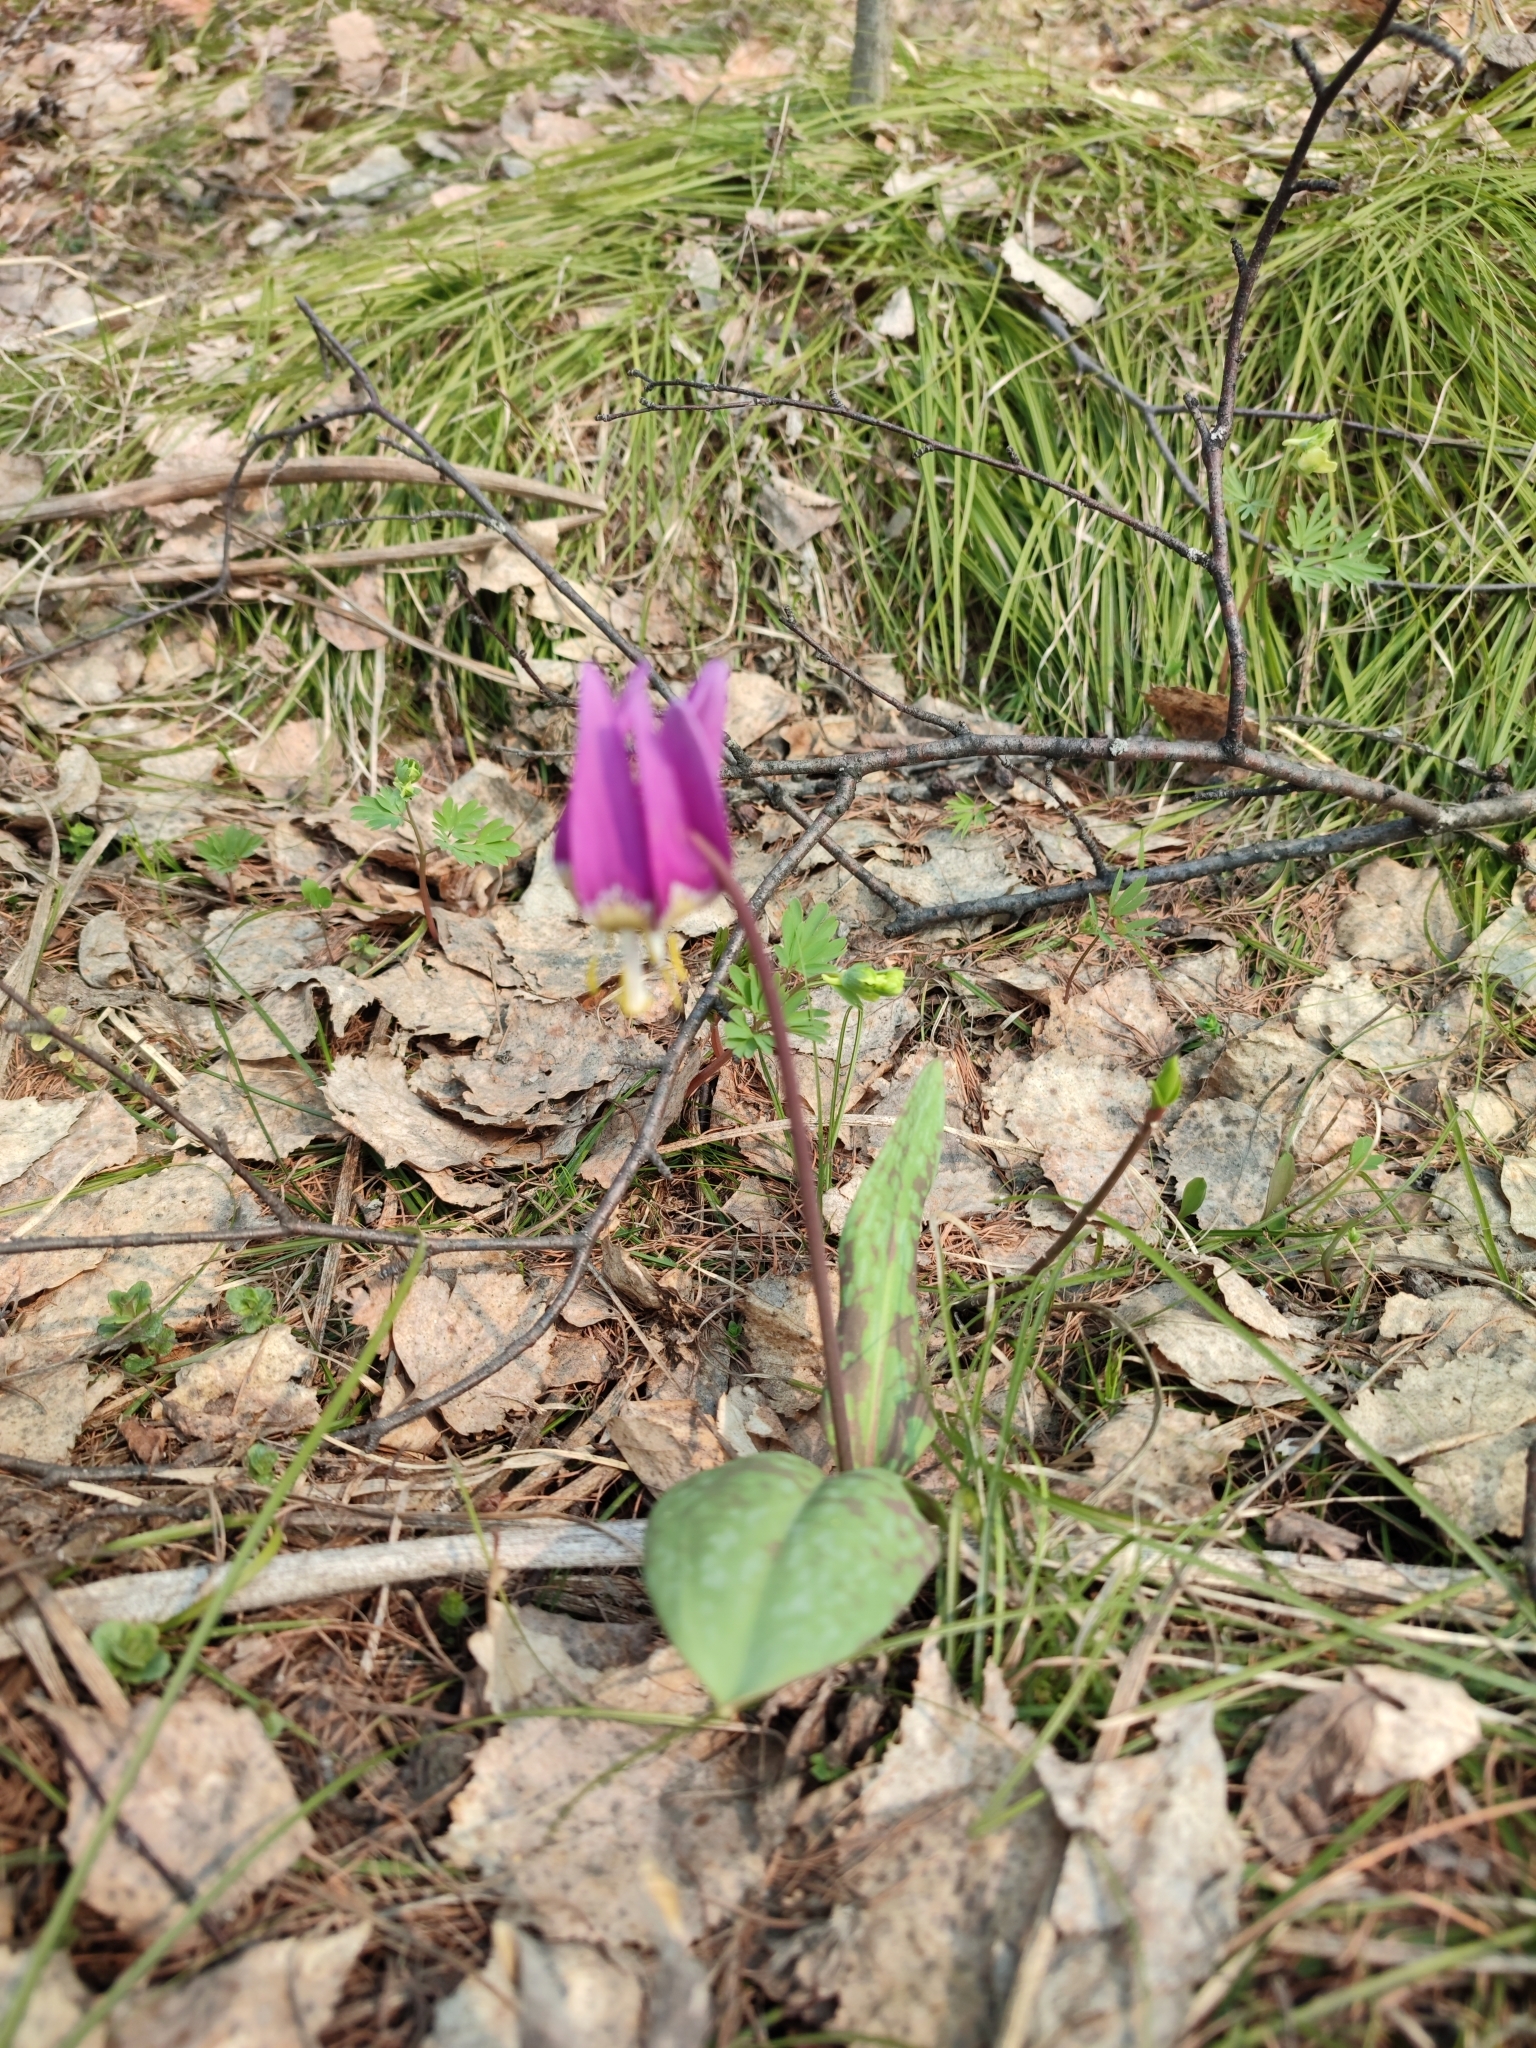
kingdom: Plantae
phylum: Tracheophyta
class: Liliopsida
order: Liliales
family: Liliaceae
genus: Erythronium
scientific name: Erythronium sibiricum
